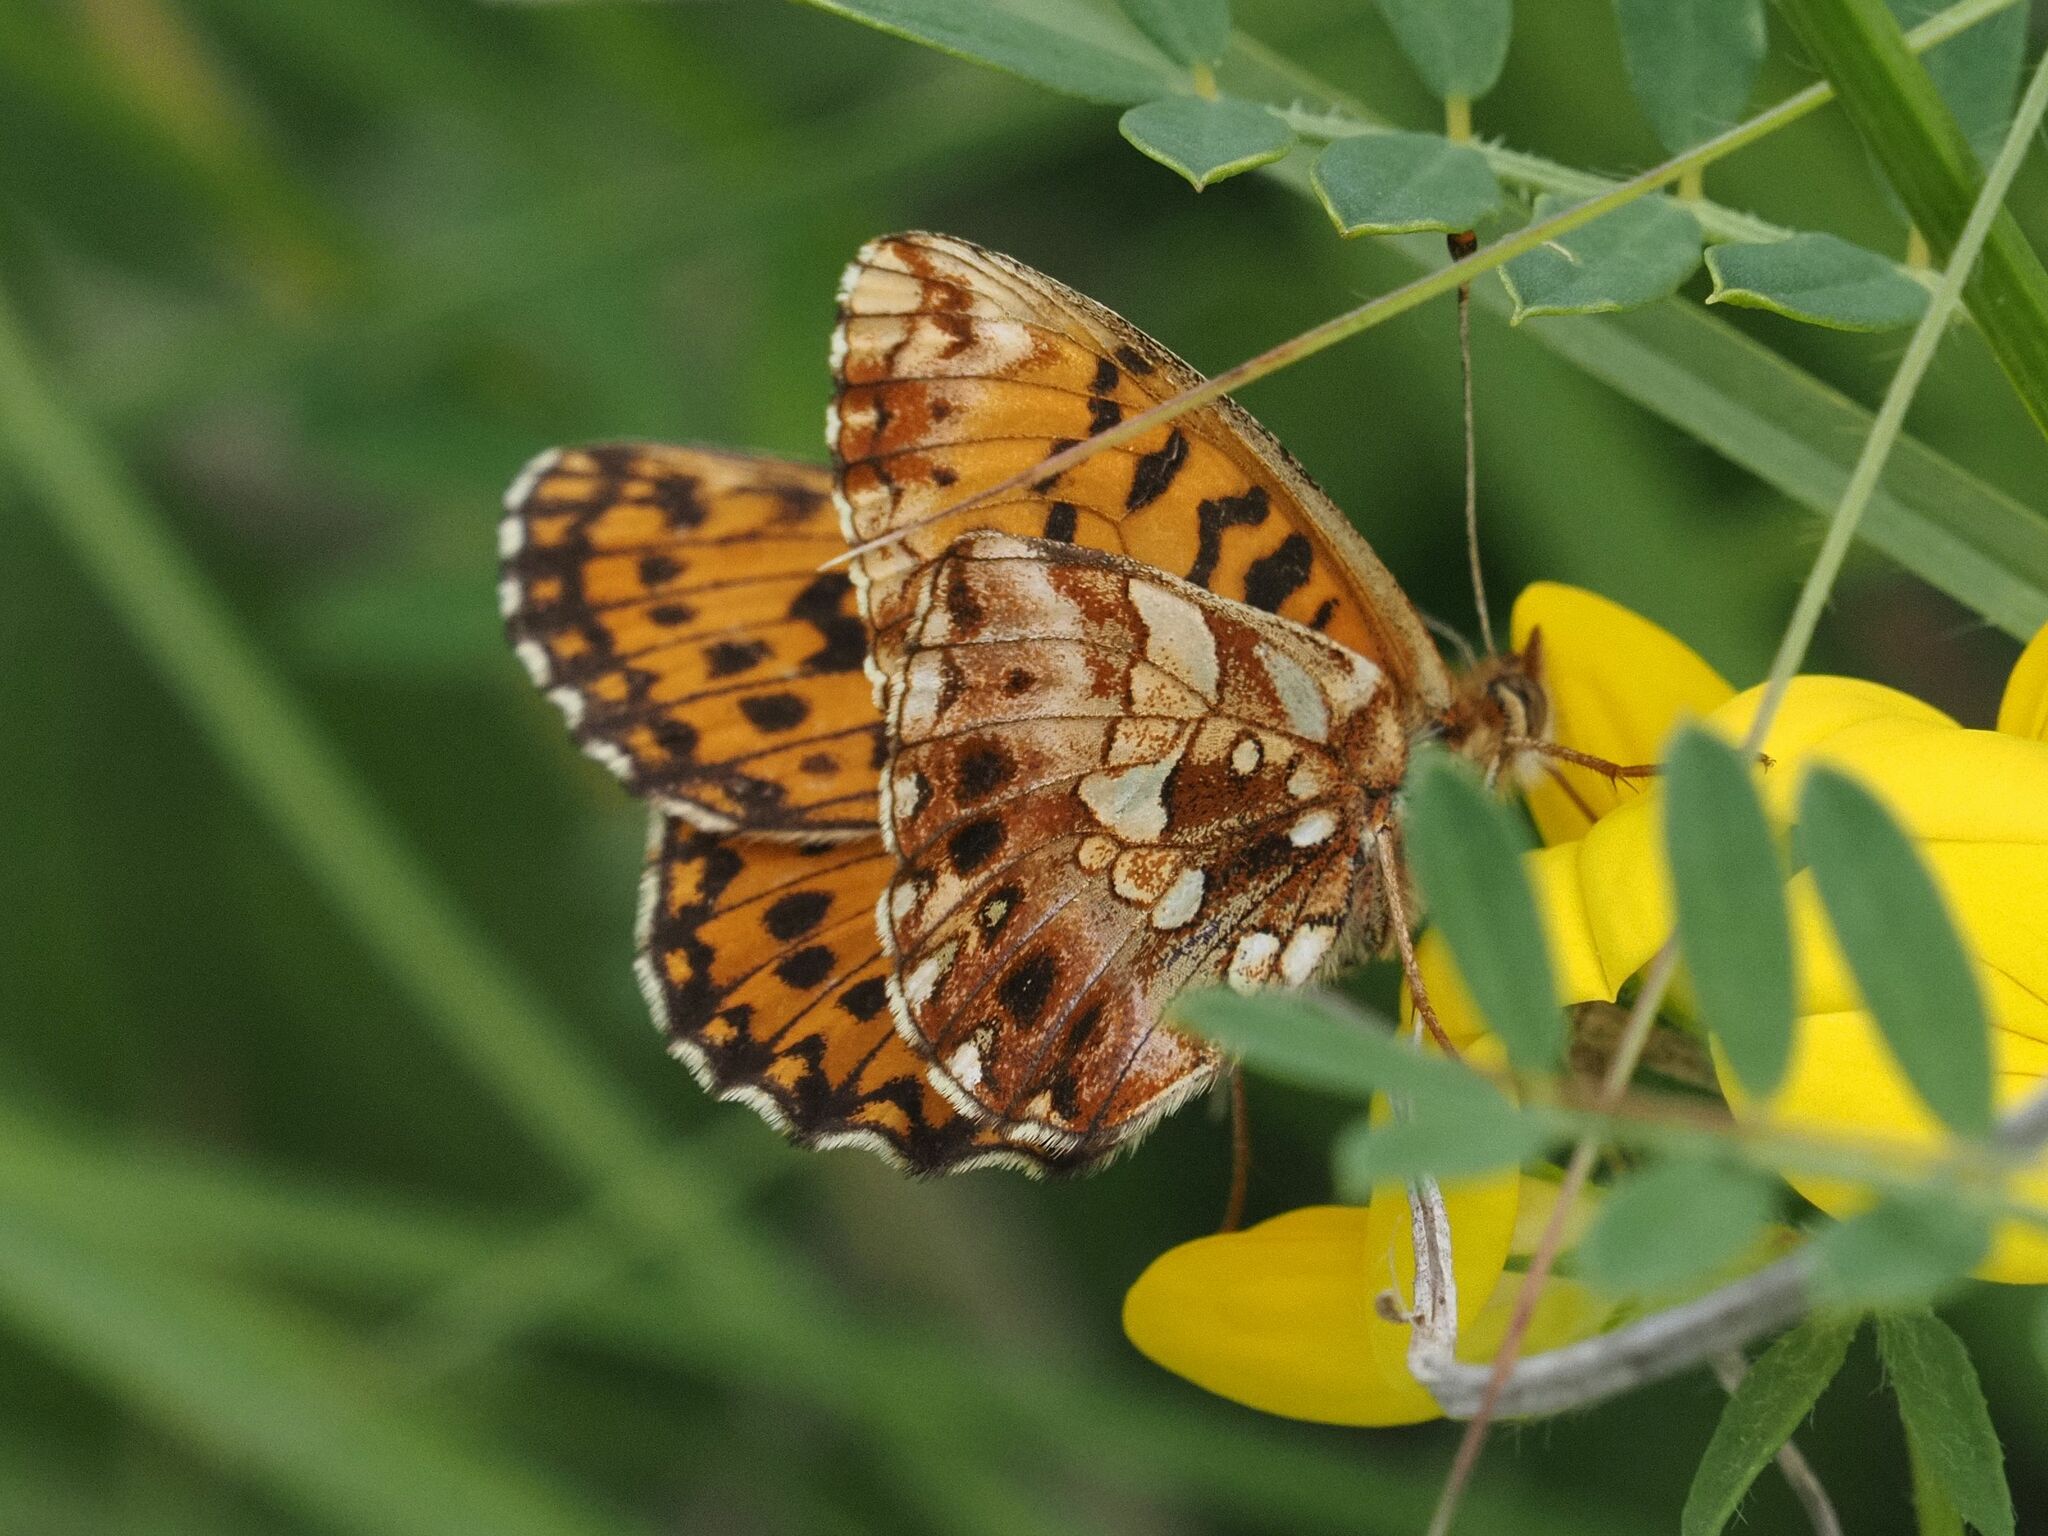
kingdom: Animalia
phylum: Arthropoda
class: Insecta
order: Lepidoptera
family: Nymphalidae
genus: Boloria
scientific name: Boloria dia
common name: Weaver's fritillary
